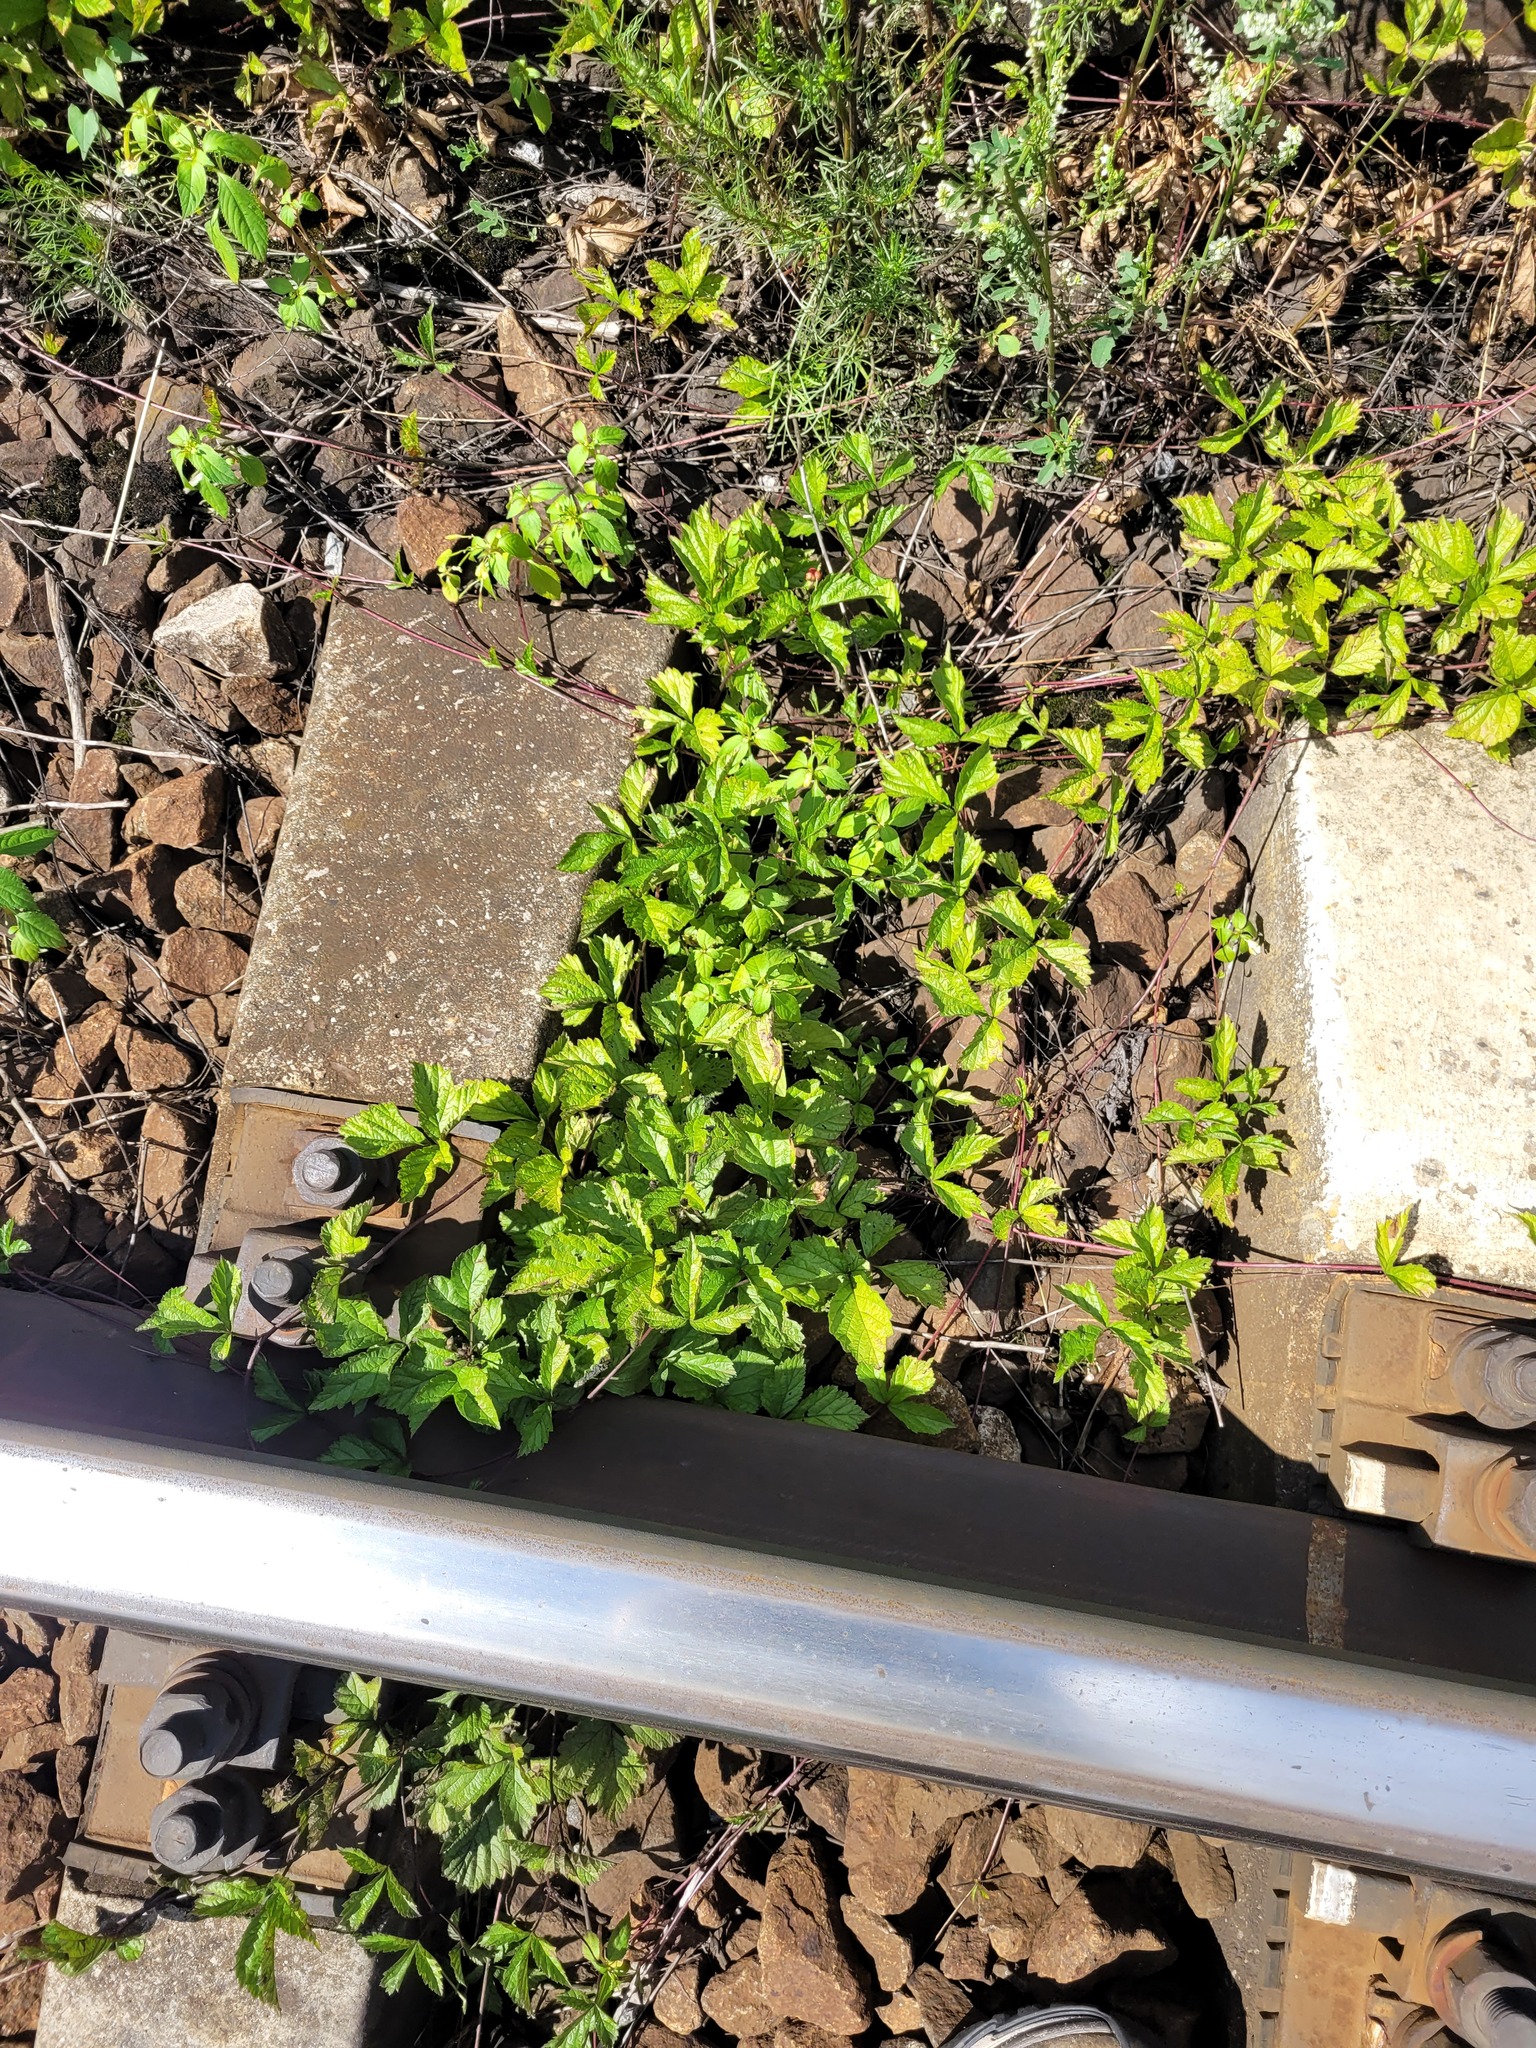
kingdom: Plantae
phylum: Tracheophyta
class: Magnoliopsida
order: Rosales
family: Rosaceae
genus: Rubus
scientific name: Rubus saxatilis
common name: Stone bramble
